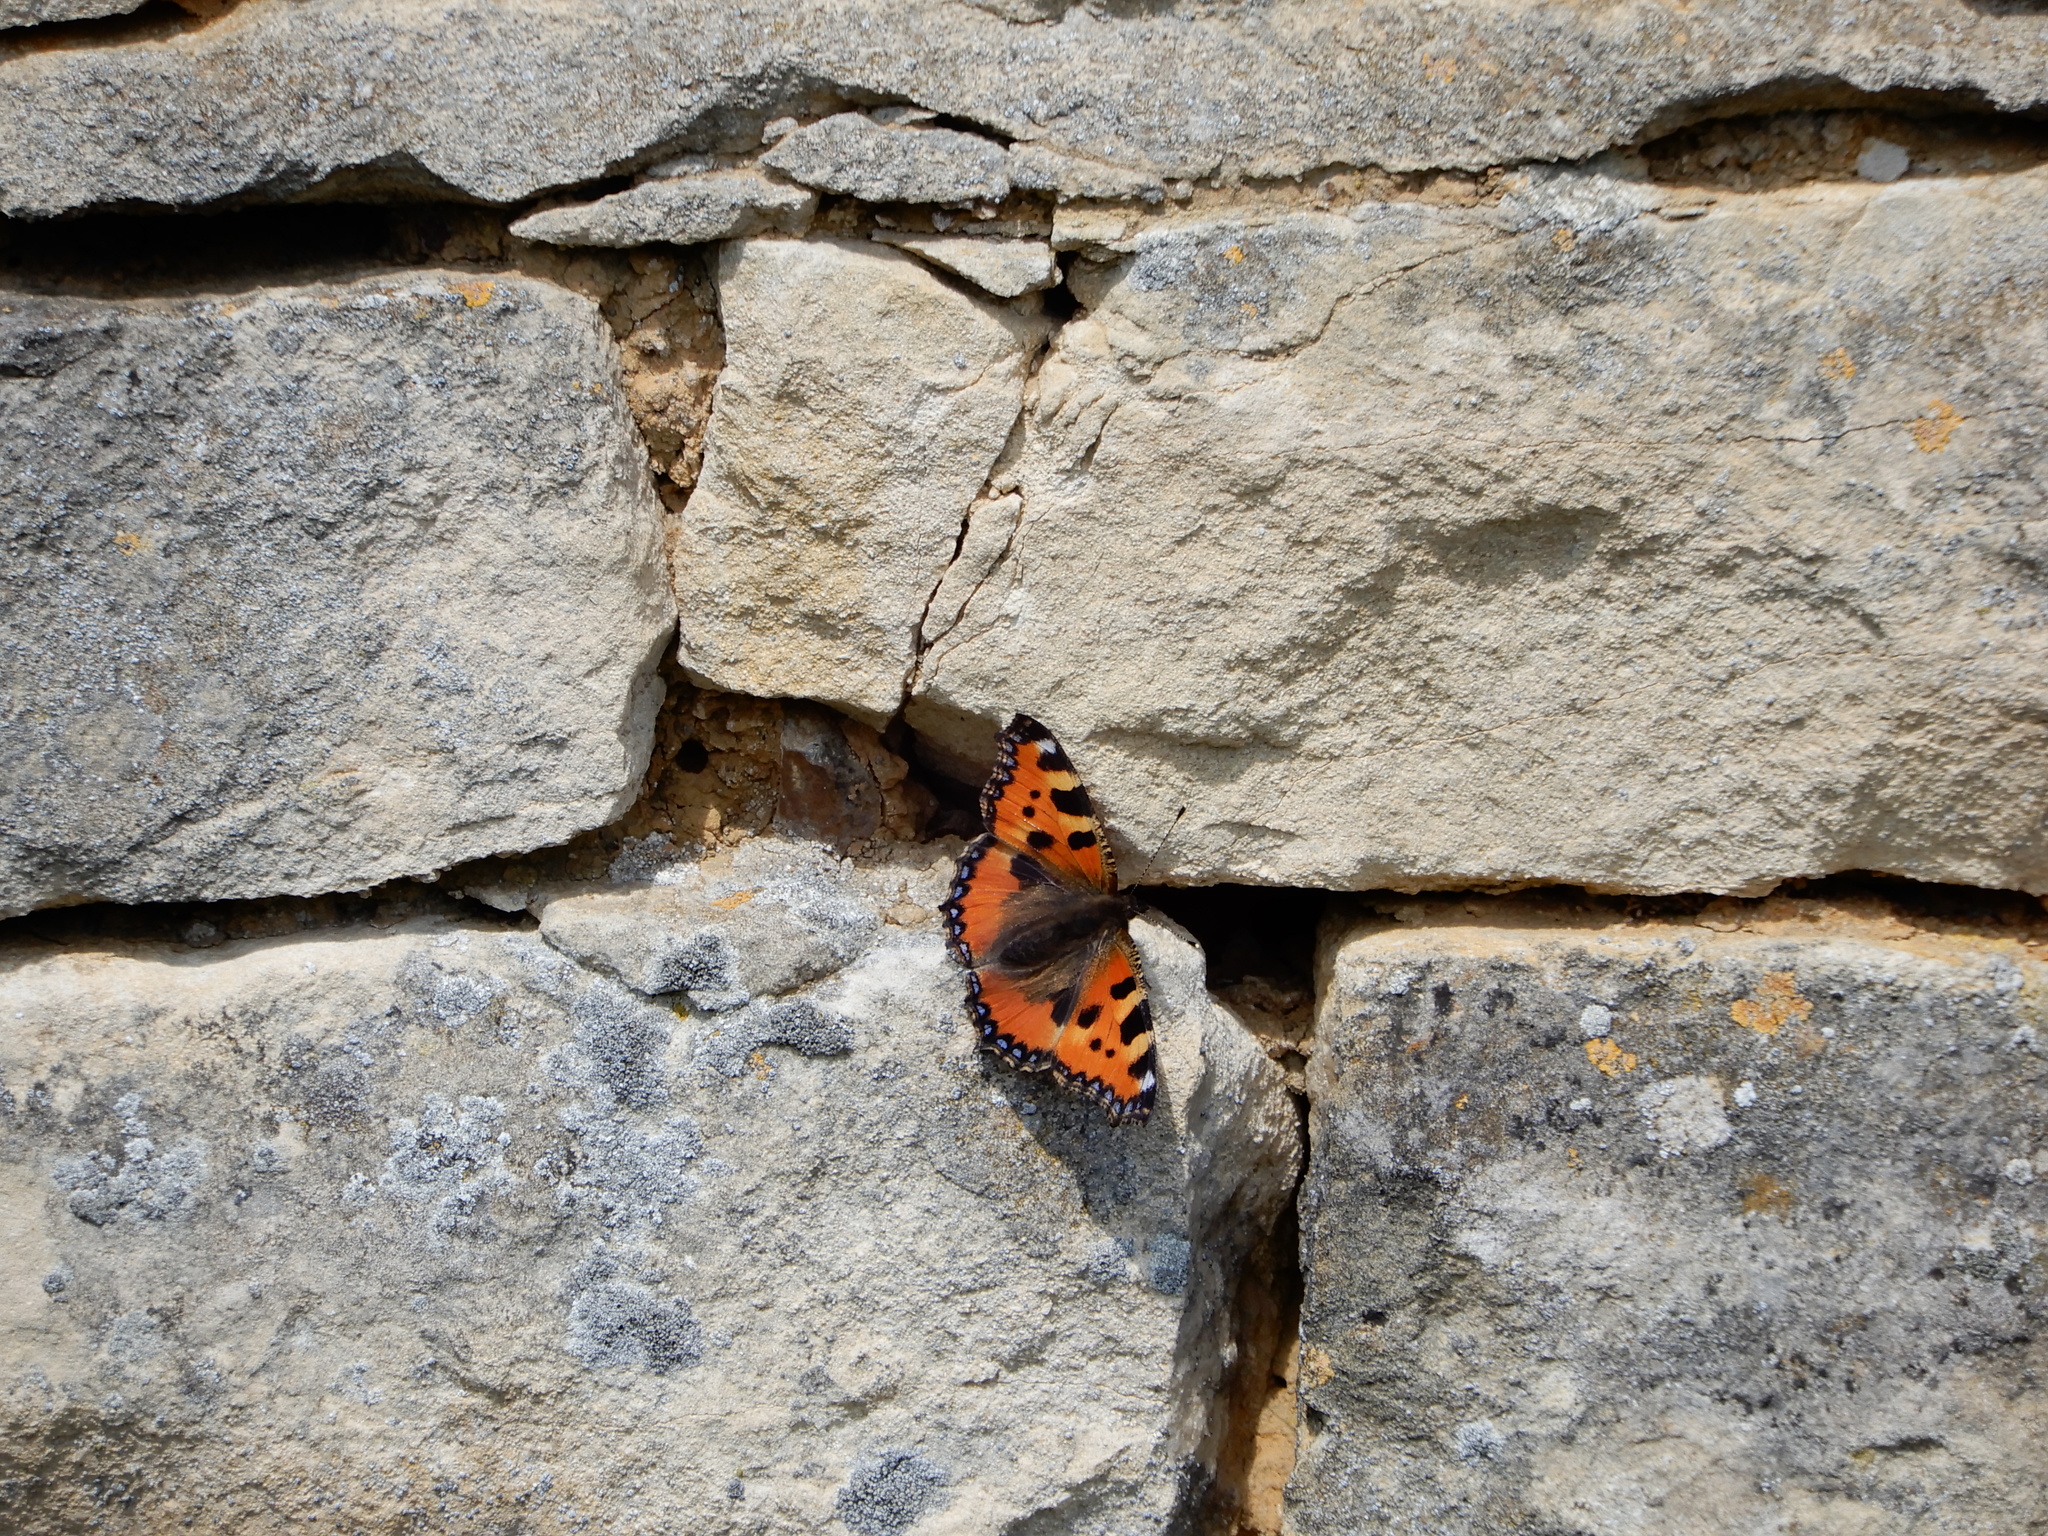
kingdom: Animalia
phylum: Arthropoda
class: Insecta
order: Lepidoptera
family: Nymphalidae
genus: Aglais
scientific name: Aglais urticae
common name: Small tortoiseshell
